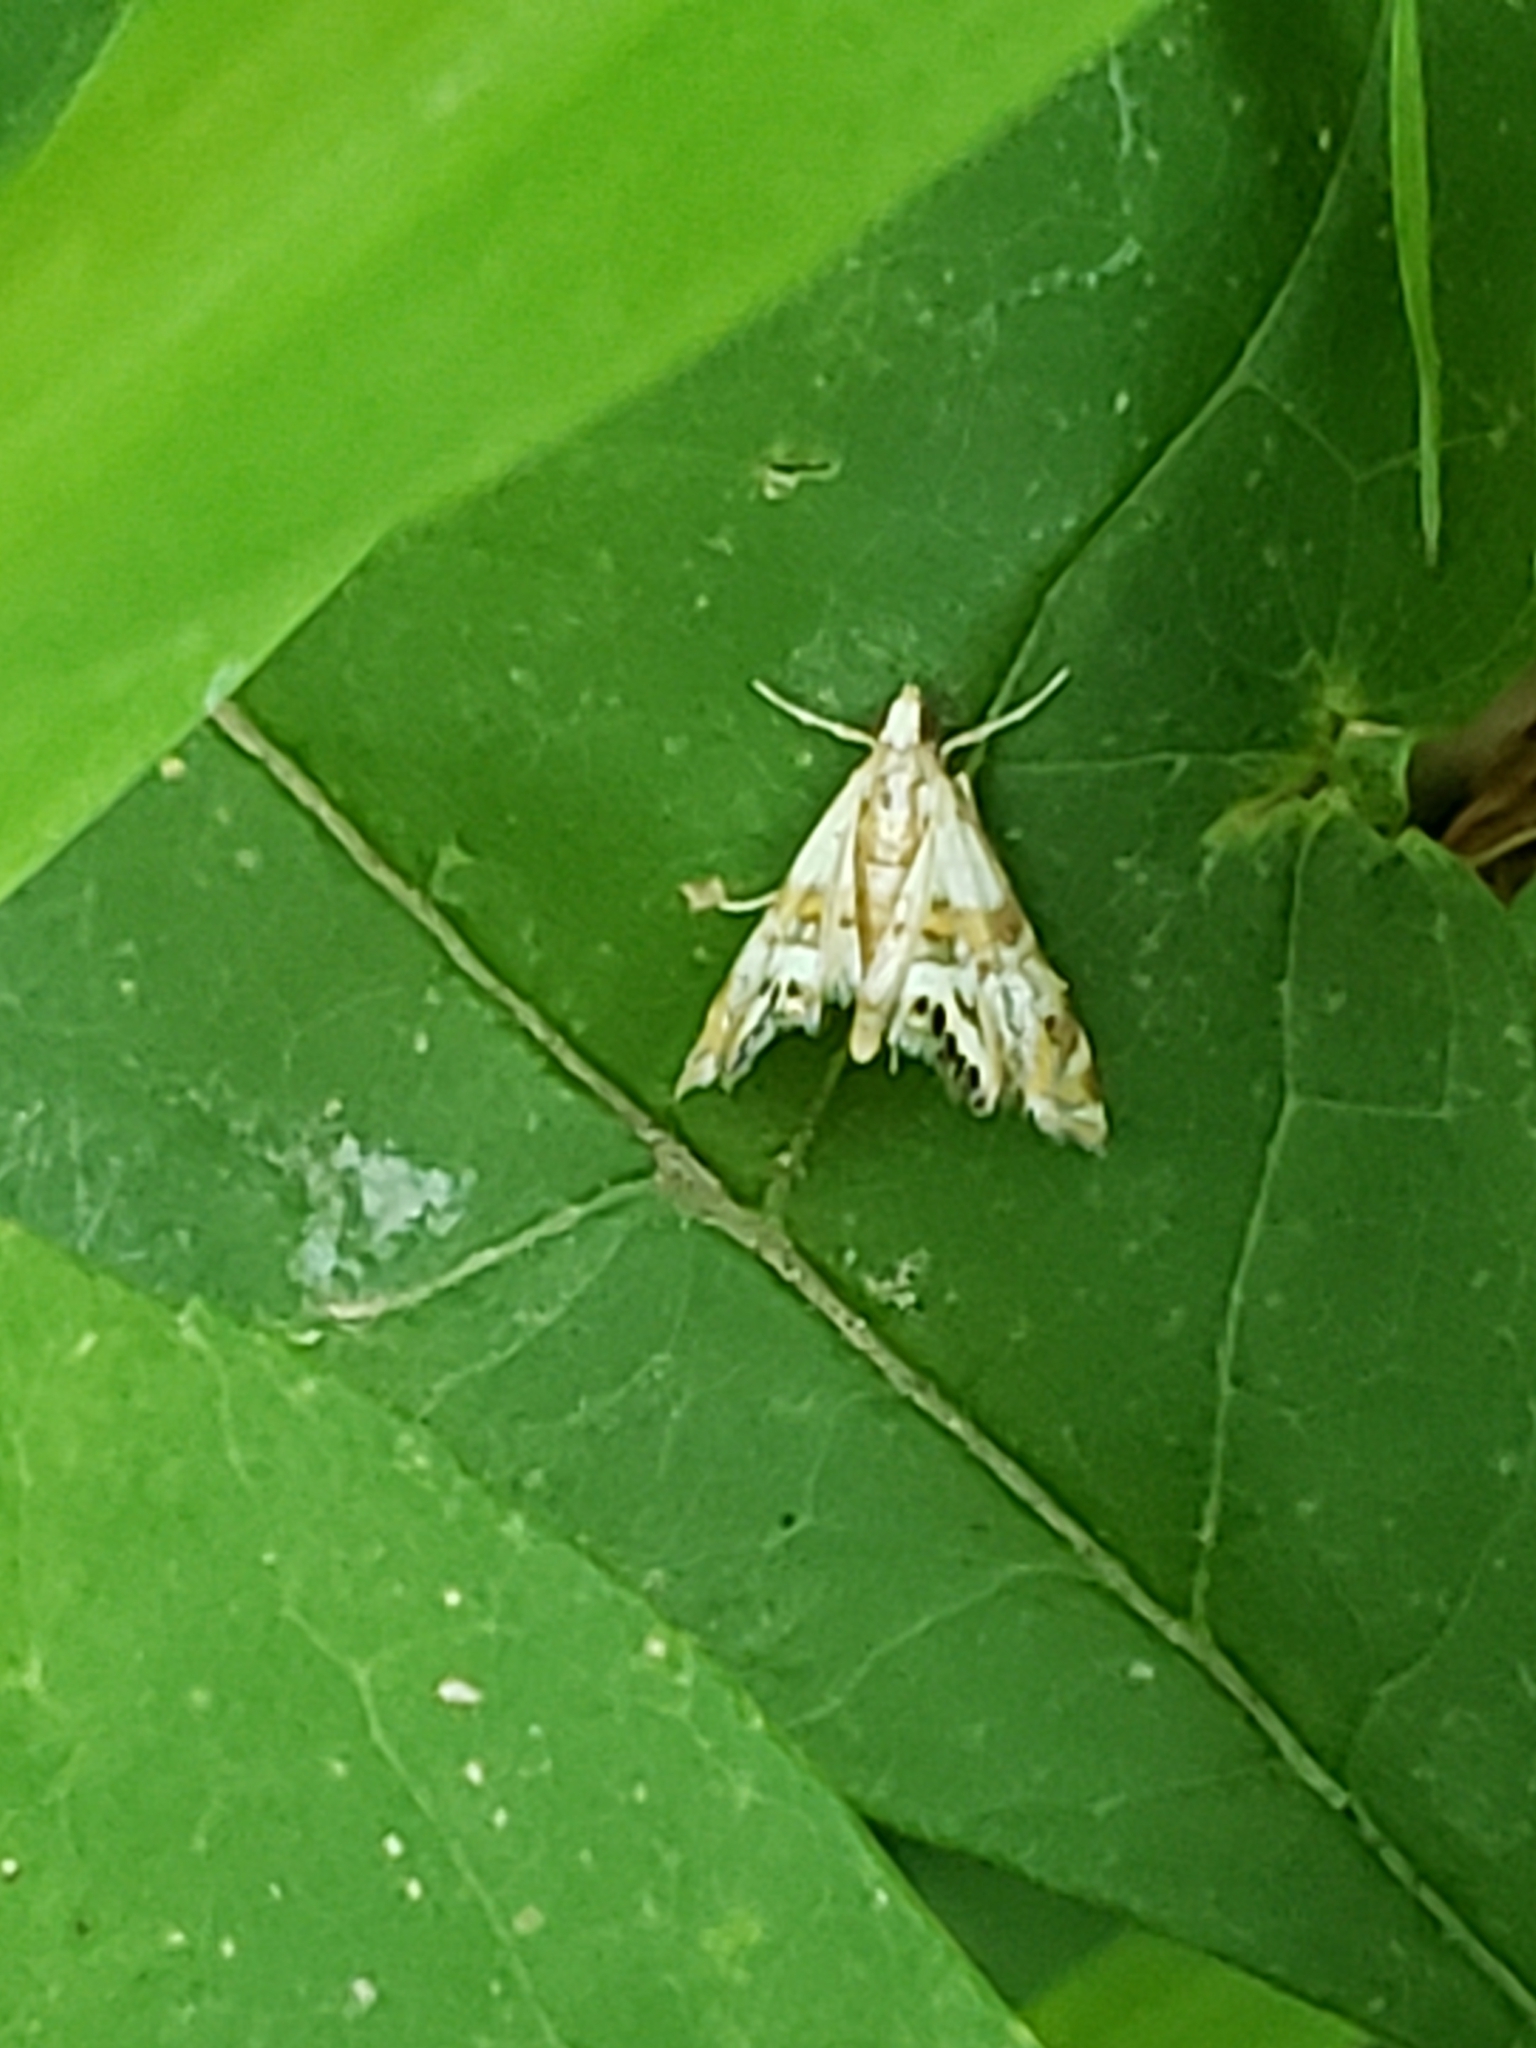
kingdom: Animalia
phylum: Arthropoda
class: Insecta
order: Lepidoptera
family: Crambidae
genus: Petrophila
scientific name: Petrophila bifascialis
